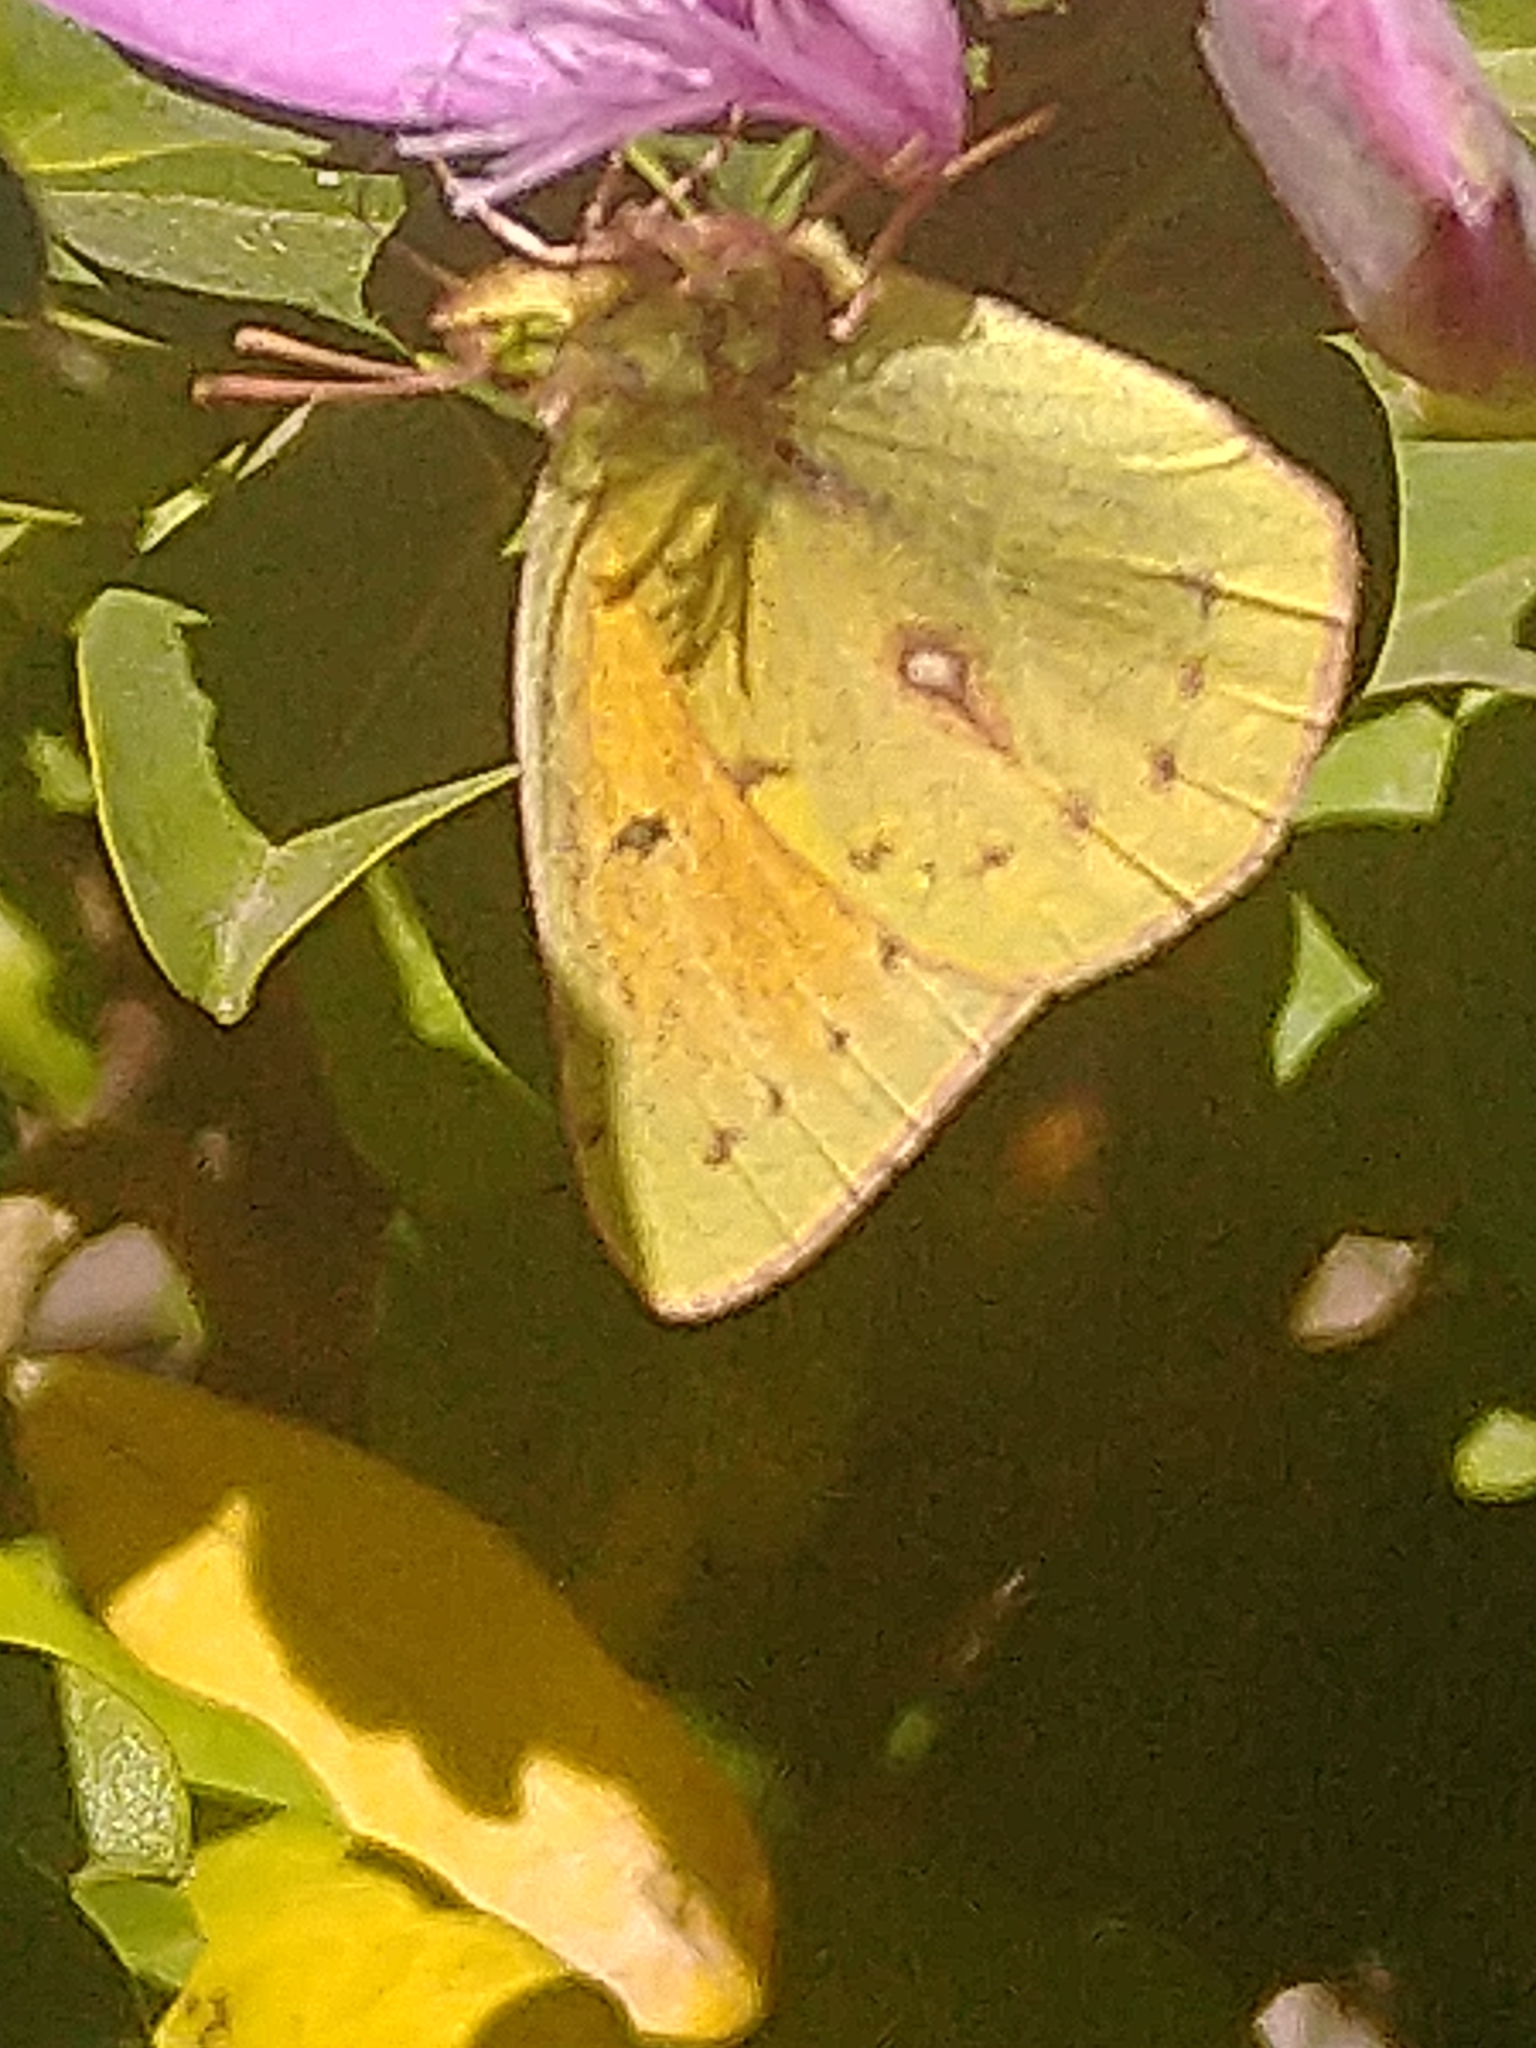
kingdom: Animalia
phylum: Arthropoda
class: Insecta
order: Lepidoptera
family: Pieridae
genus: Colias
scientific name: Colias lesbia
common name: Lesbia clouded yellow
